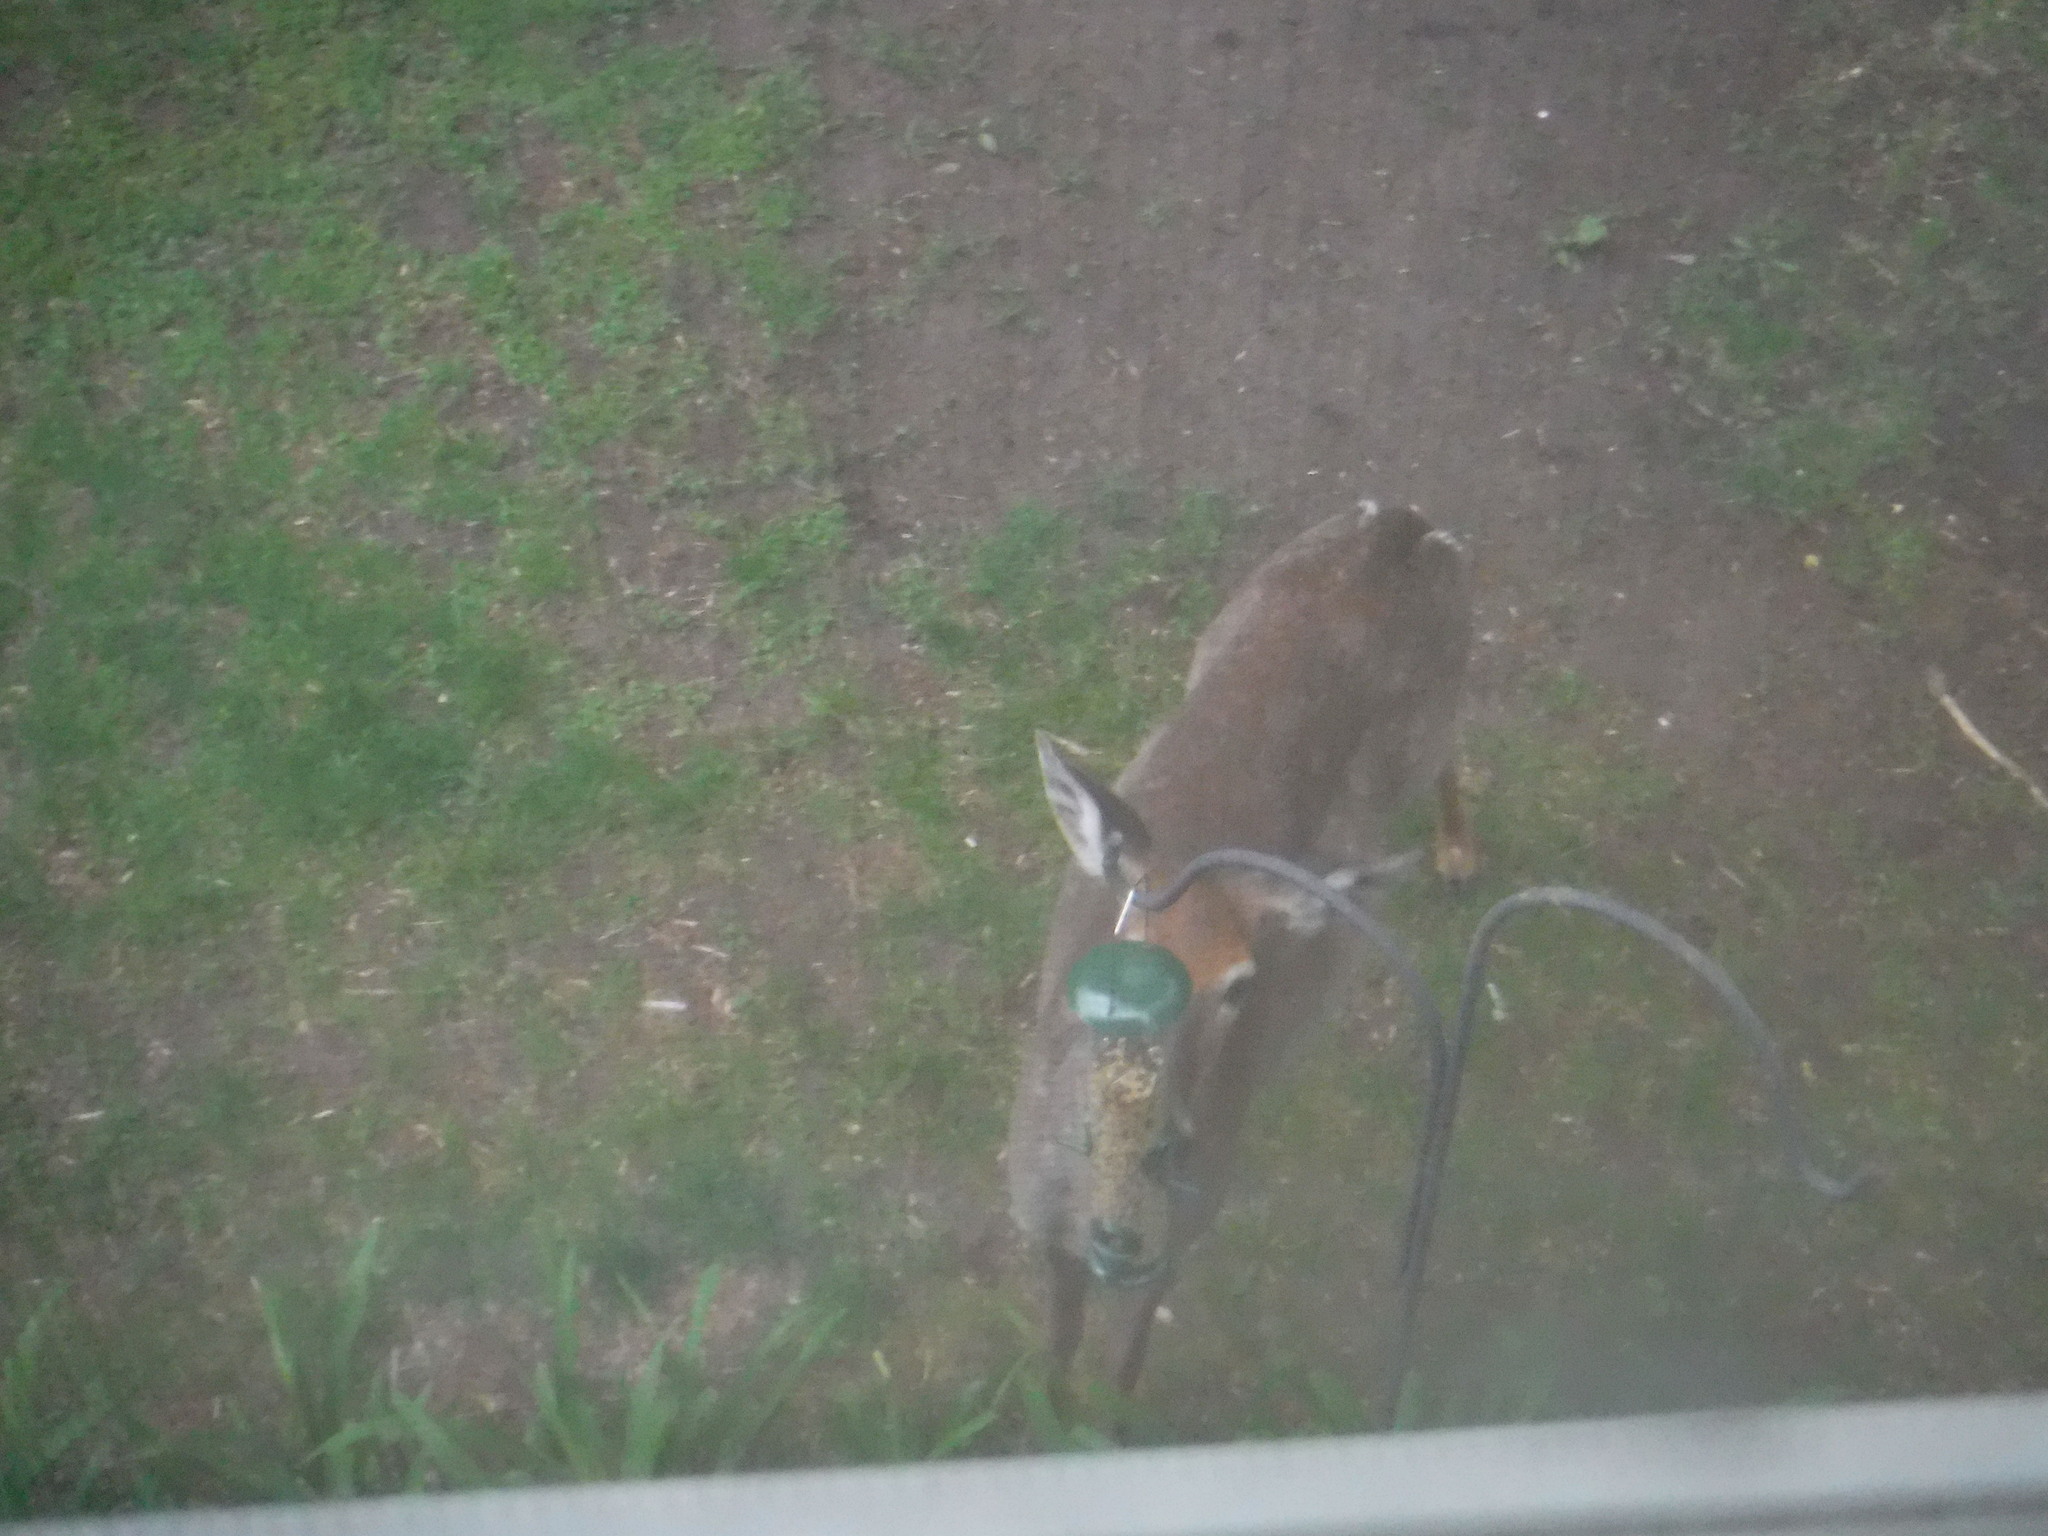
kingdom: Animalia
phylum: Chordata
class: Mammalia
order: Artiodactyla
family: Cervidae
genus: Odocoileus
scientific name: Odocoileus virginianus
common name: White-tailed deer
